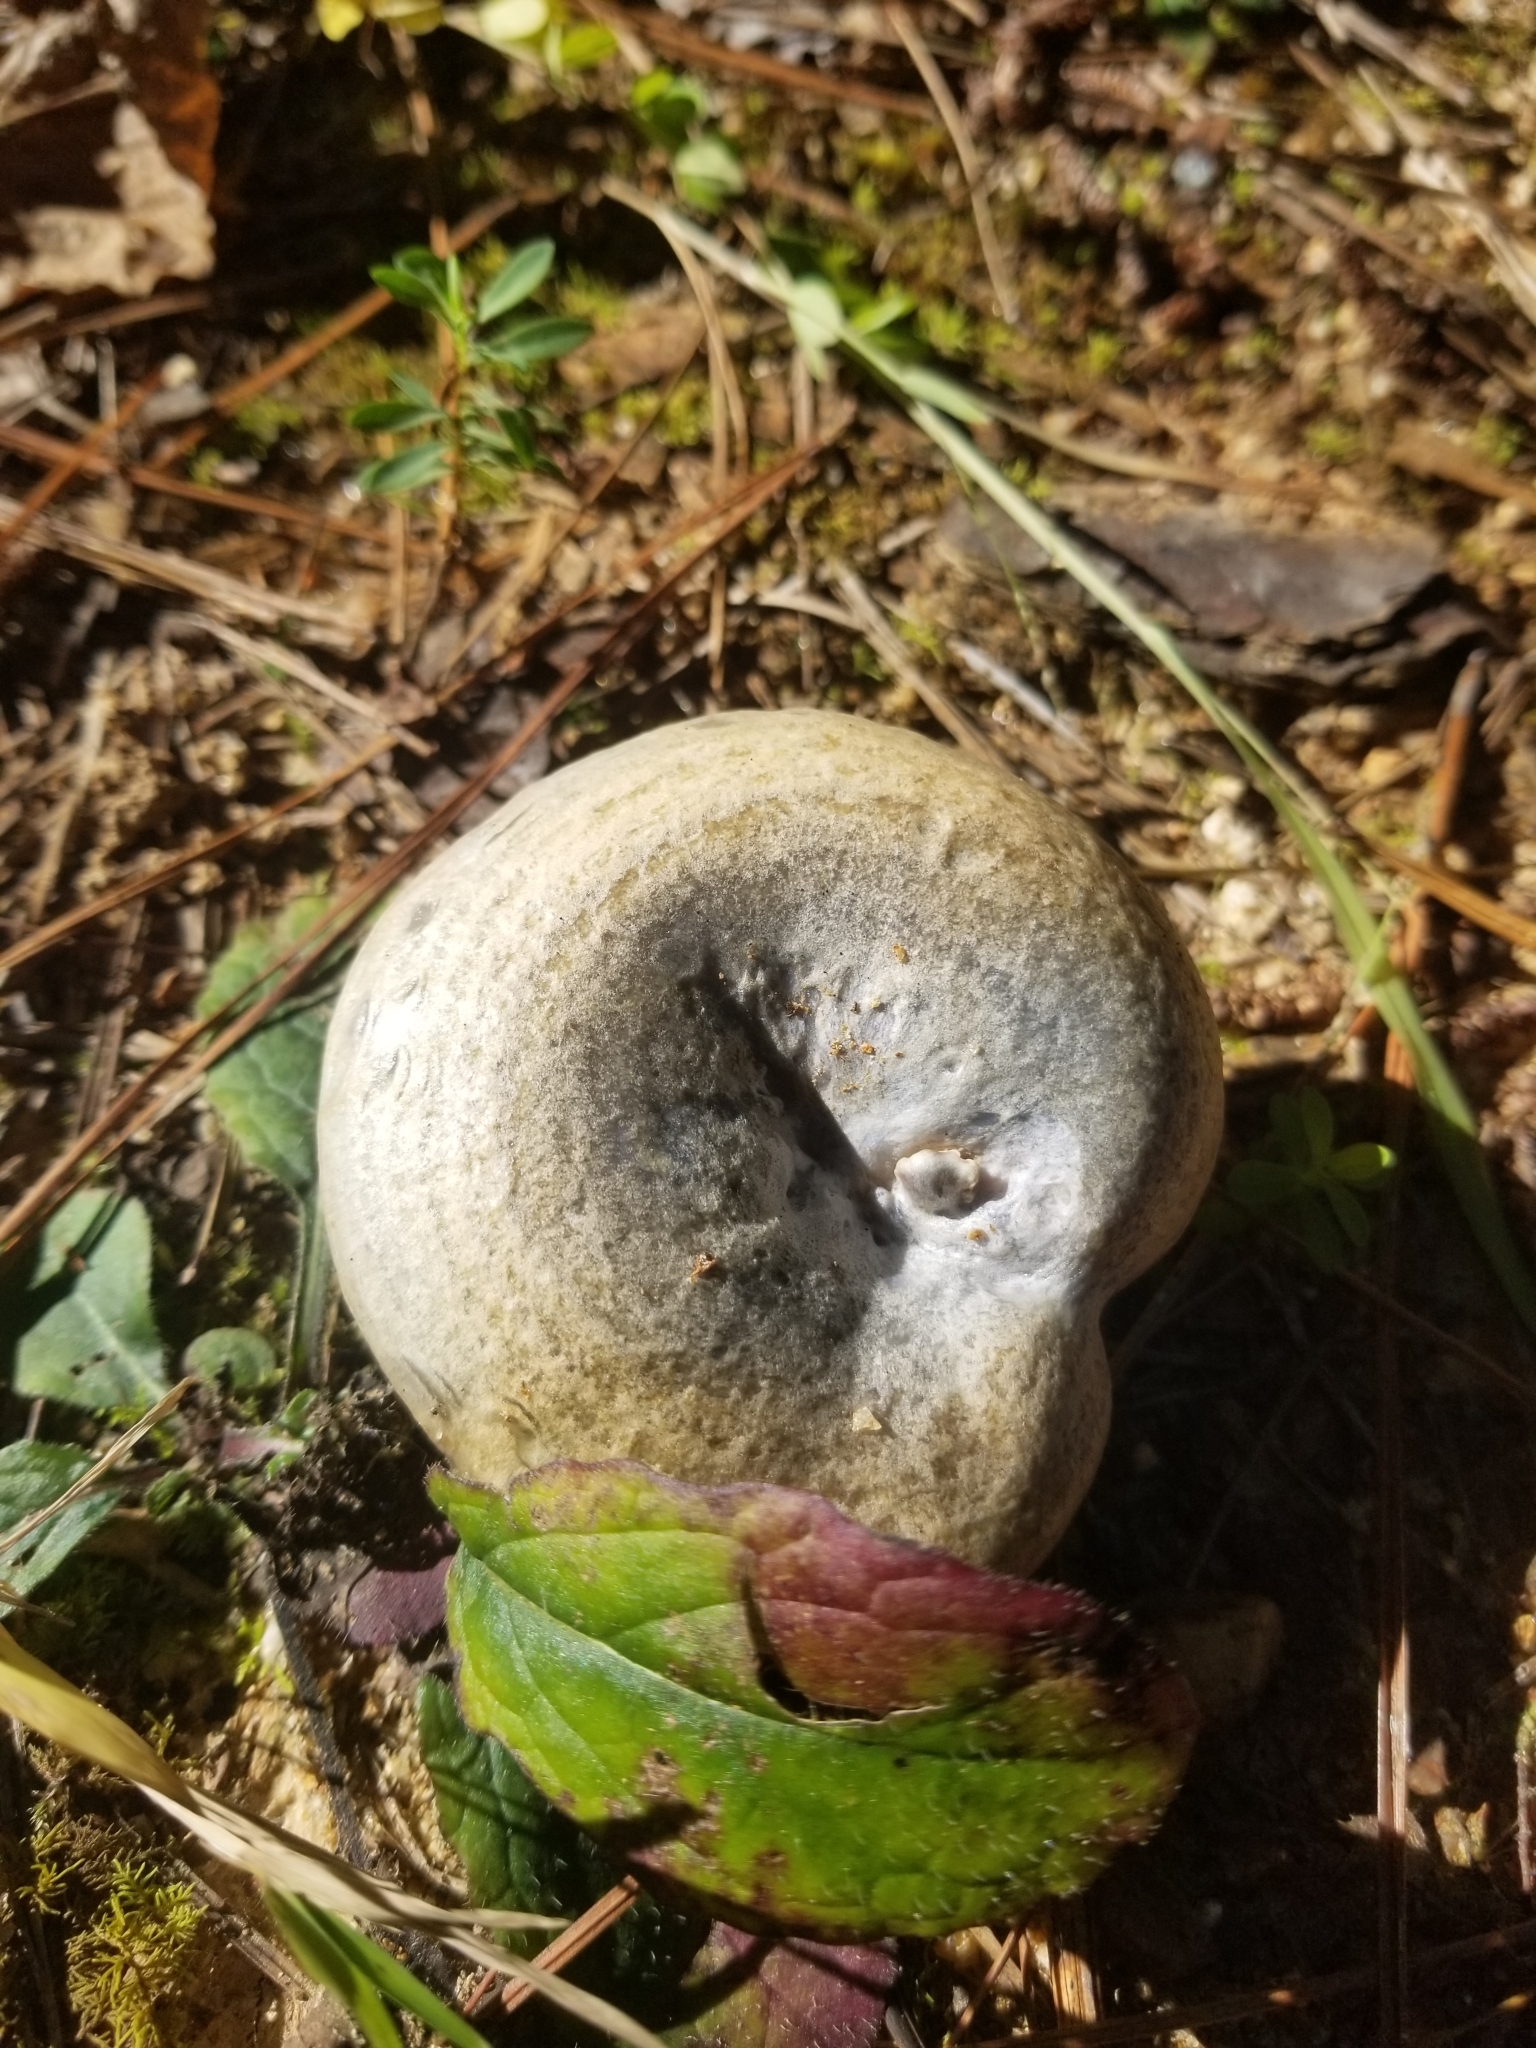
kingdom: Fungi
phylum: Basidiomycota
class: Agaricomycetes
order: Russulales
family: Russulaceae
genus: Lactarius
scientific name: Lactarius paradoxus
